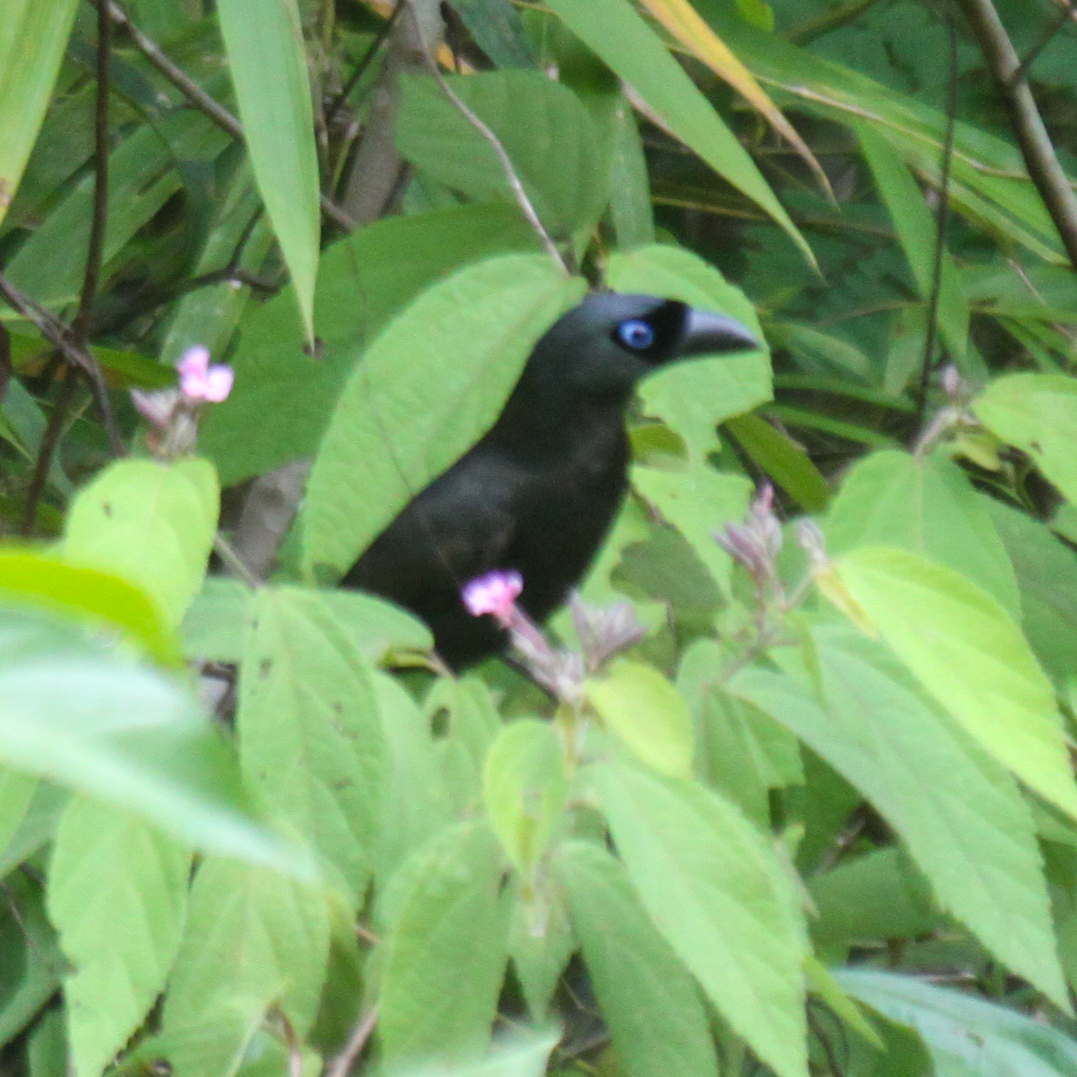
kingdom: Animalia
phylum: Chordata
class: Aves
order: Passeriformes
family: Corvidae
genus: Crypsirina
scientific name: Crypsirina temia
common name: Racket-tailed treepie
